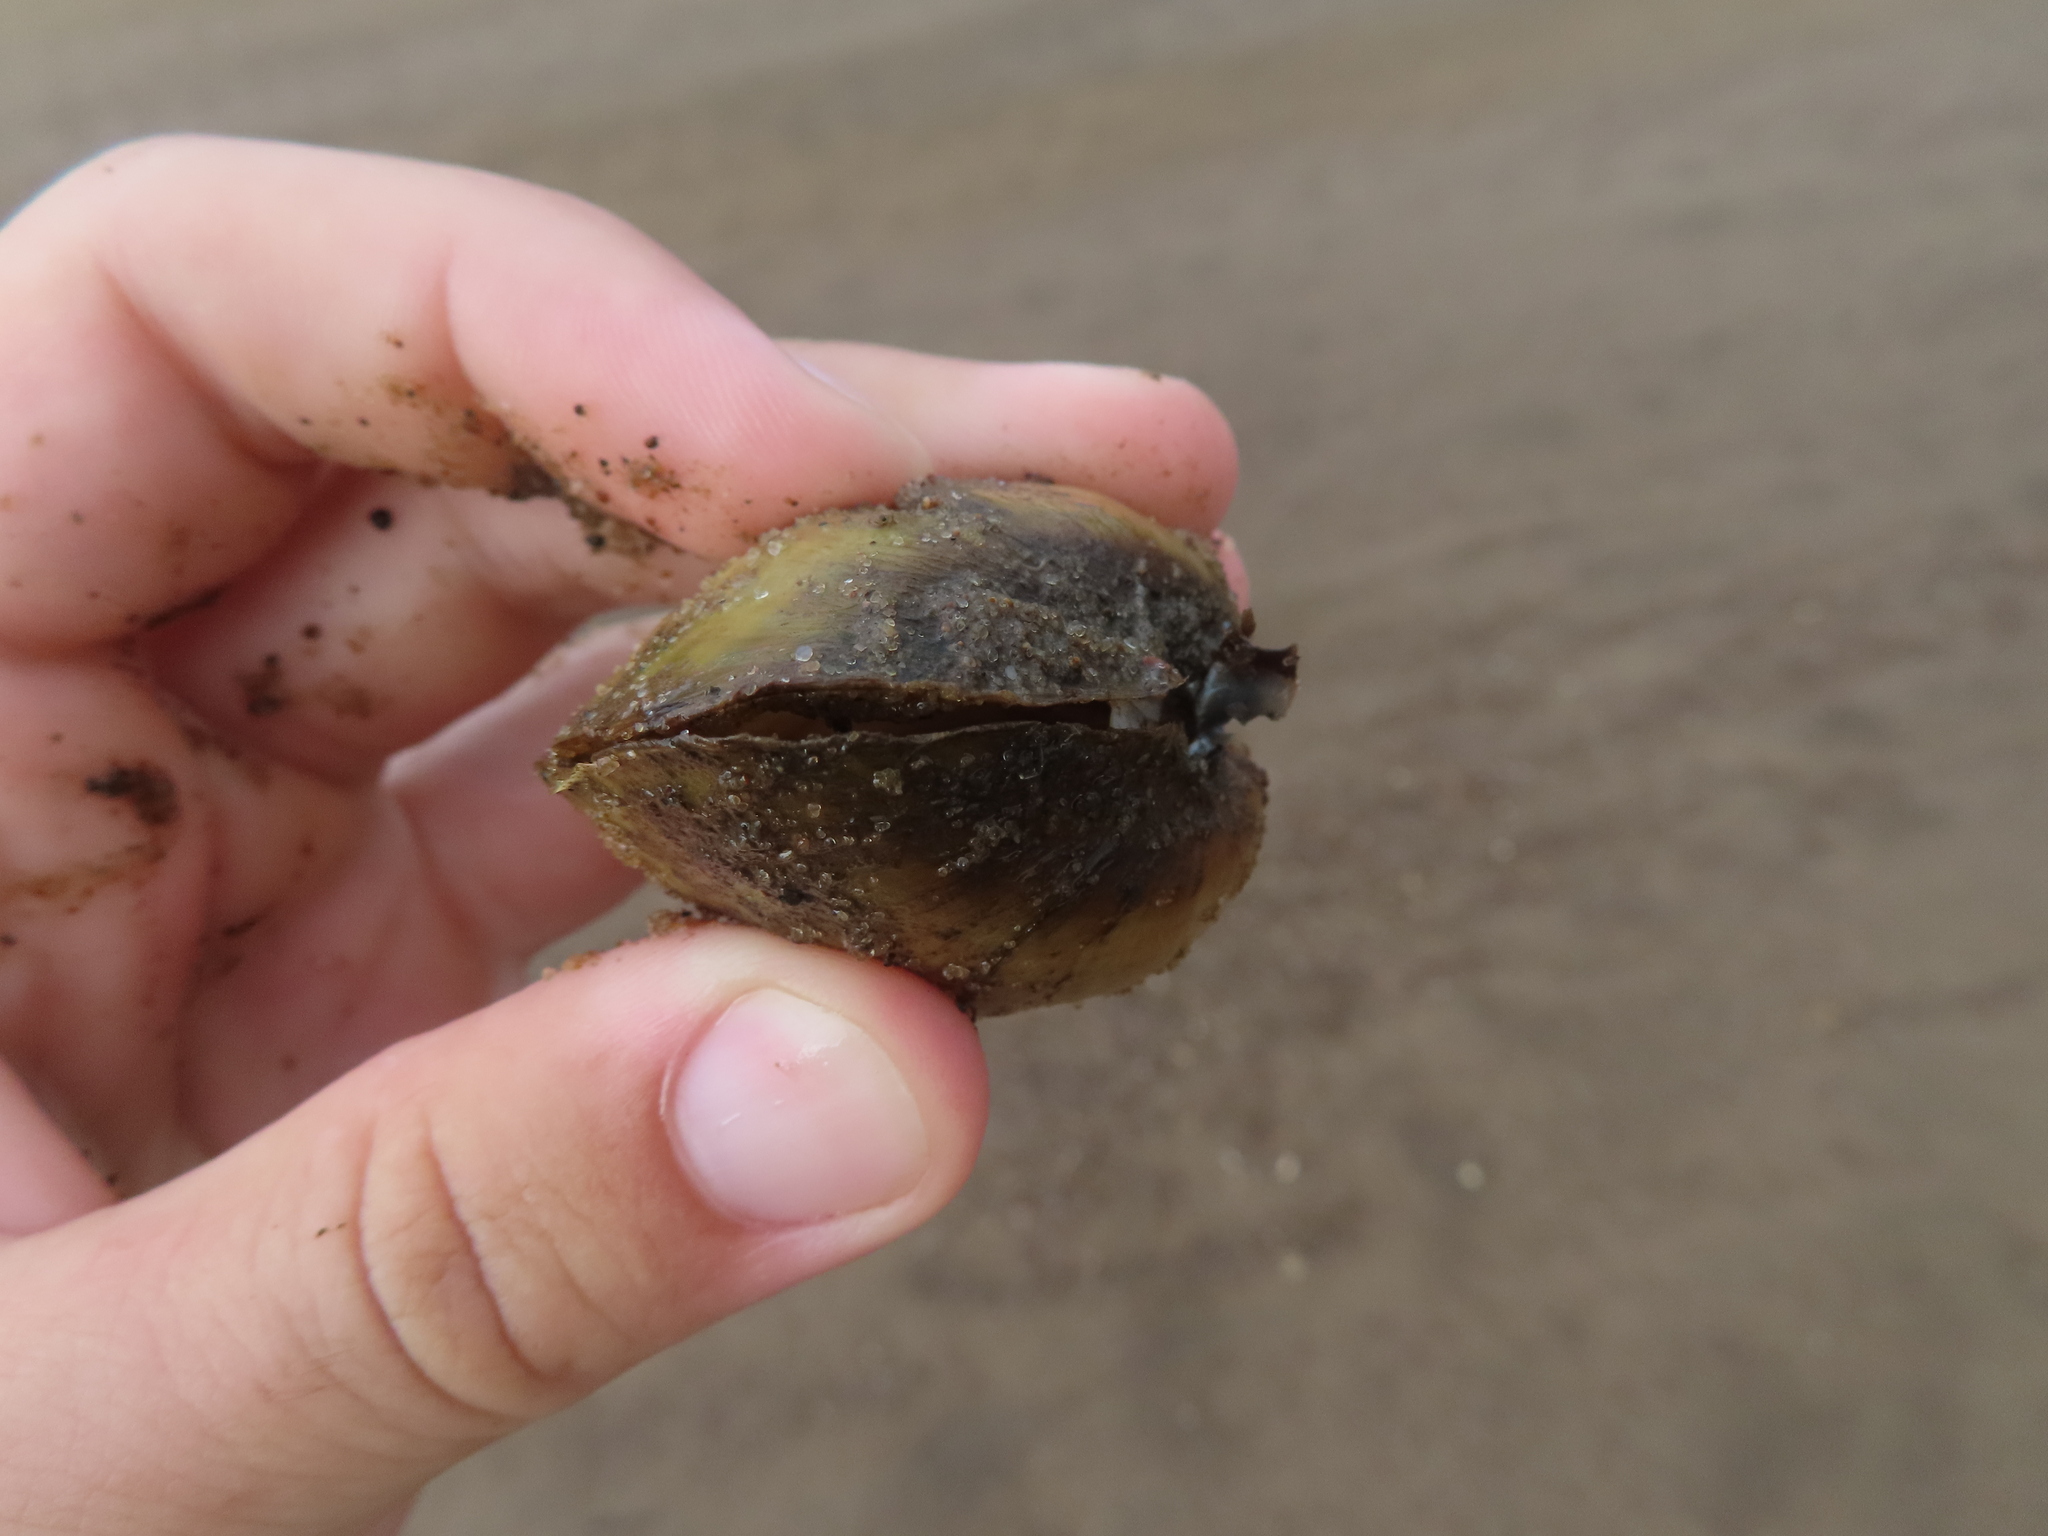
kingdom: Animalia
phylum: Mollusca
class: Bivalvia
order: Unionida
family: Unionidae
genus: Lampsilis
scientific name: Lampsilis cardium
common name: Plain pocketbook
